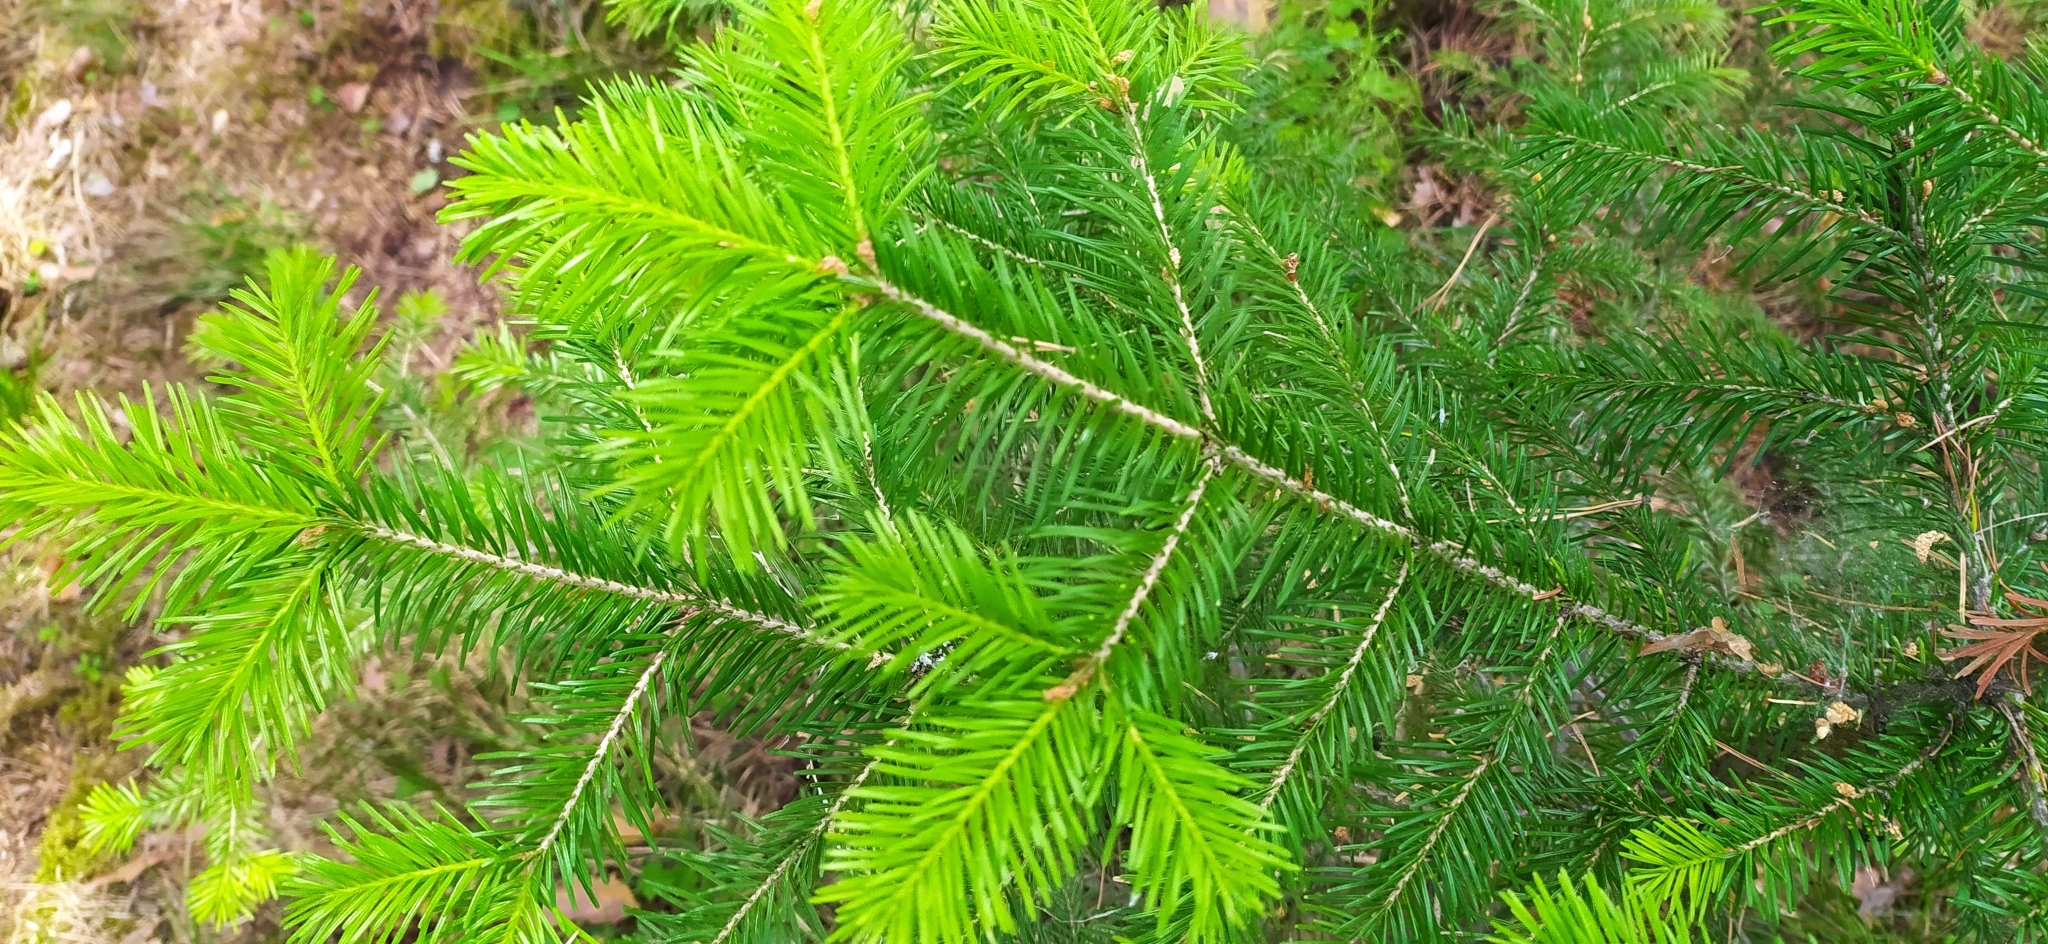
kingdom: Plantae
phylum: Tracheophyta
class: Pinopsida
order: Pinales
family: Pinaceae
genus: Abies
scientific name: Abies sibirica
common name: Siberian fir
